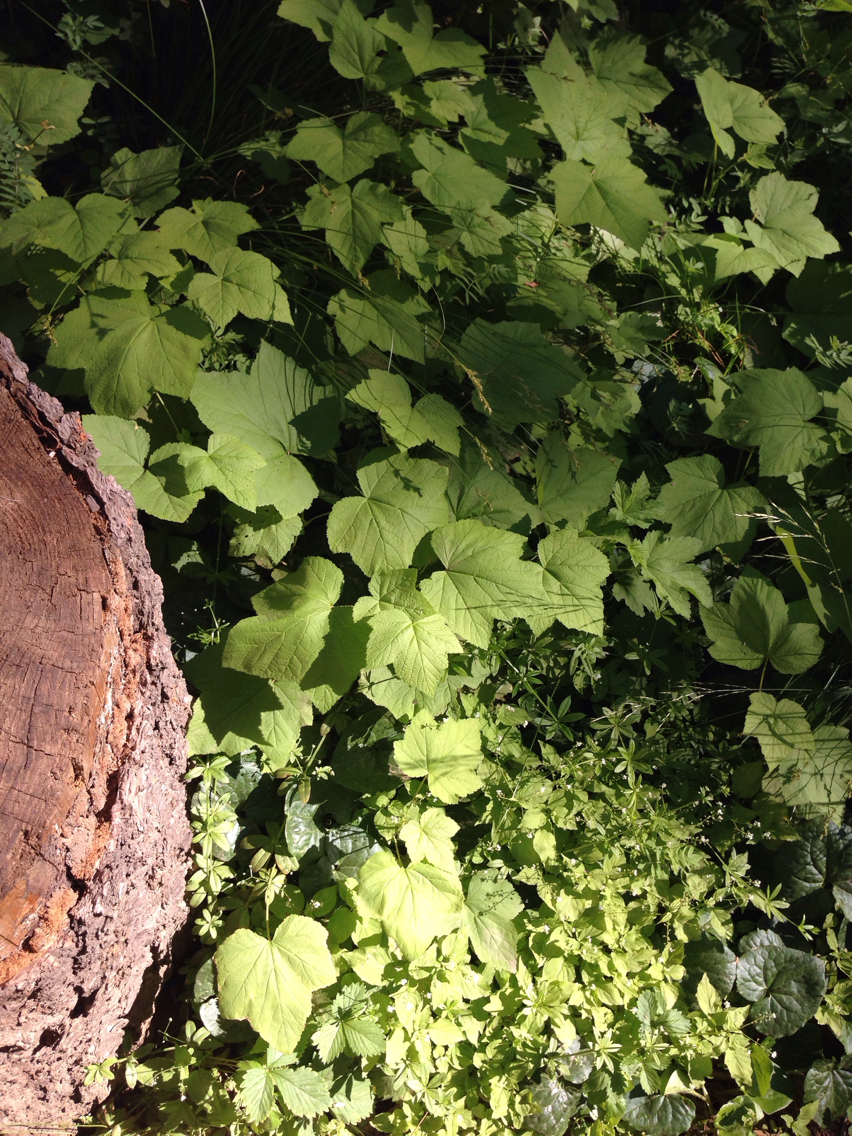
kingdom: Plantae
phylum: Tracheophyta
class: Magnoliopsida
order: Rosales
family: Rosaceae
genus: Rubus
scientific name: Rubus parviflorus
